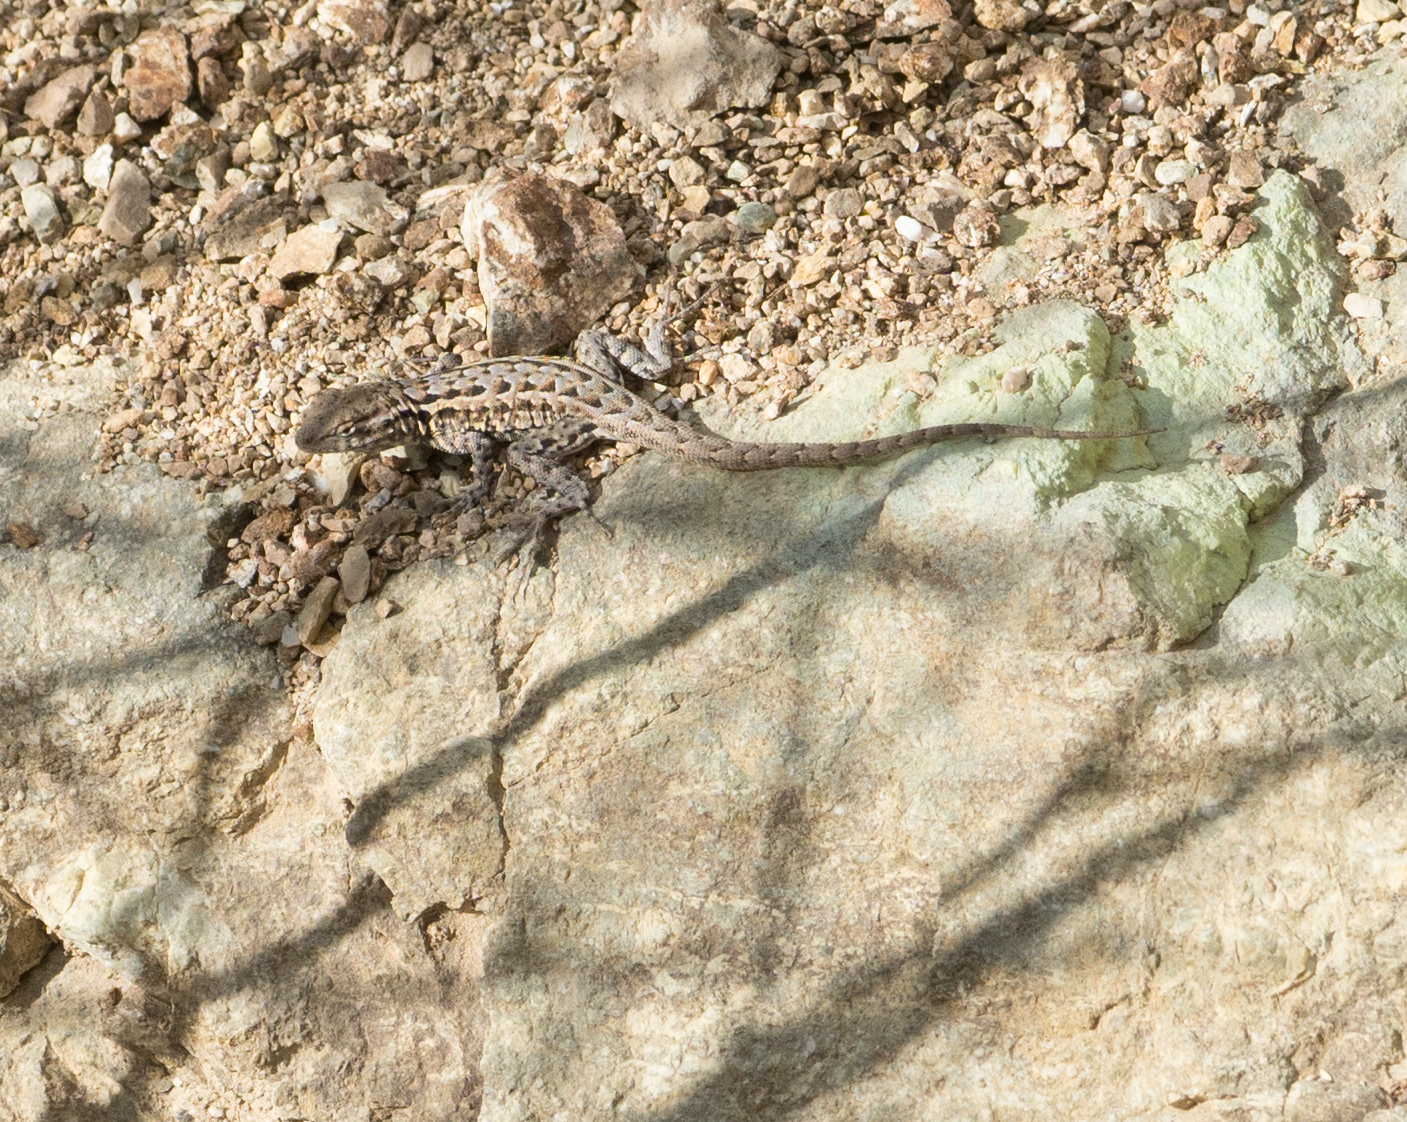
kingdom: Animalia
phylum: Chordata
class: Squamata
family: Phrynosomatidae
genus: Uta
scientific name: Uta stansburiana
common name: Side-blotched lizard
